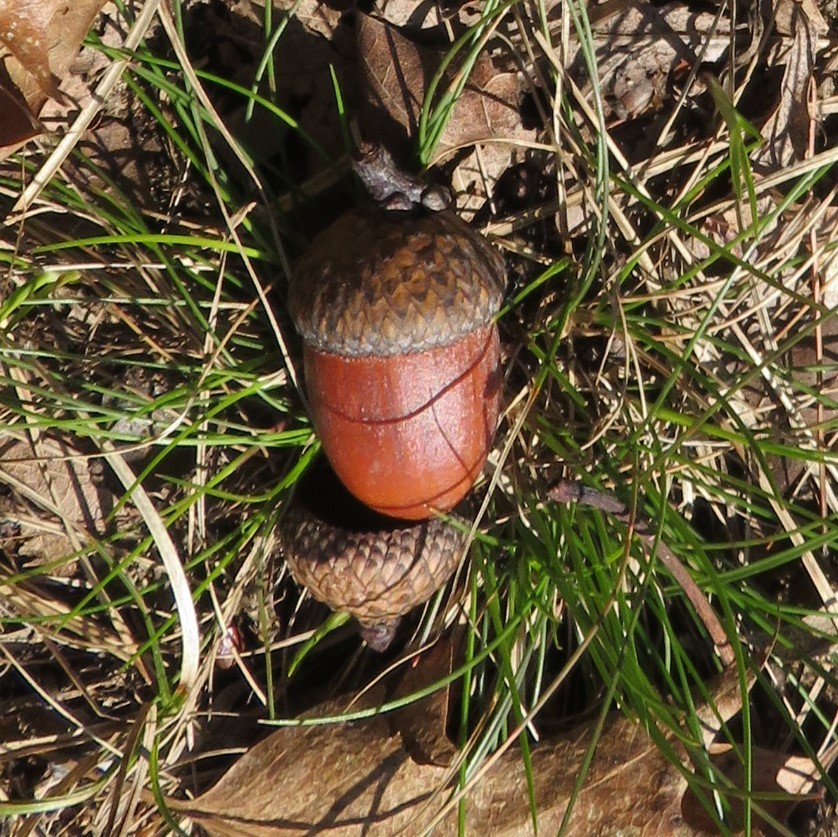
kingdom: Plantae
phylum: Tracheophyta
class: Magnoliopsida
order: Fagales
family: Fagaceae
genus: Quercus
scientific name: Quercus rubra
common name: Red oak
